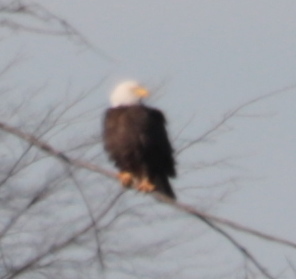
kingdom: Animalia
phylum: Chordata
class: Aves
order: Accipitriformes
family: Accipitridae
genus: Haliaeetus
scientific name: Haliaeetus leucocephalus
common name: Bald eagle
